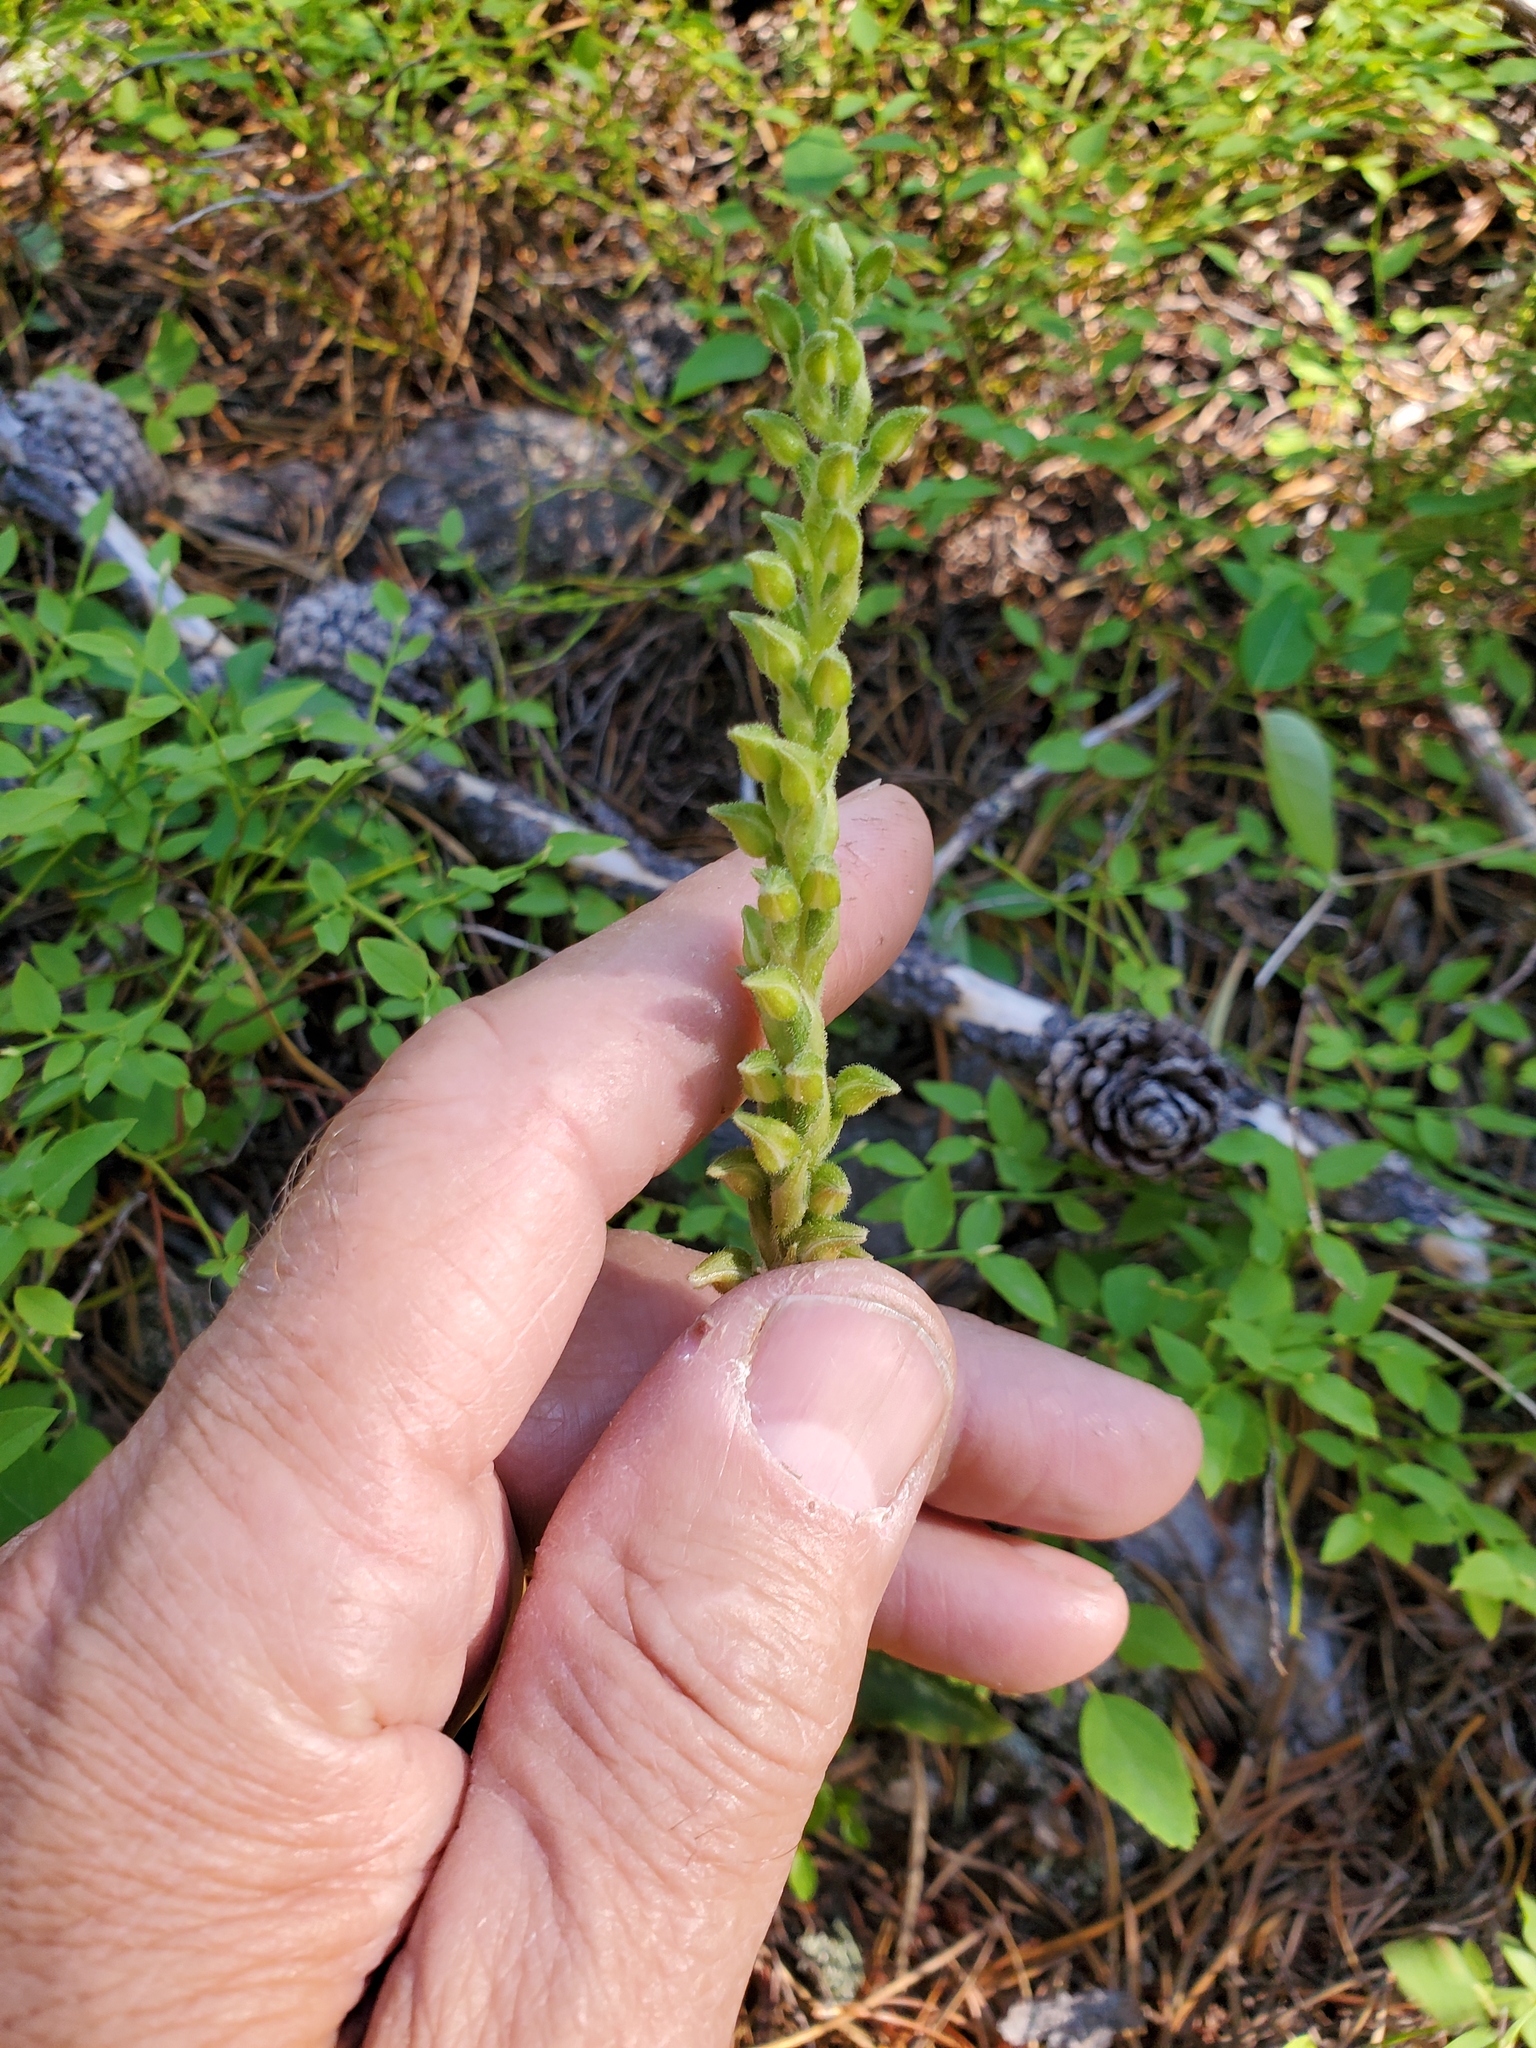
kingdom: Plantae
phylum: Tracheophyta
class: Liliopsida
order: Asparagales
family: Orchidaceae
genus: Goodyera
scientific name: Goodyera oblongifolia
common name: Giant rattlesnake-plantain
